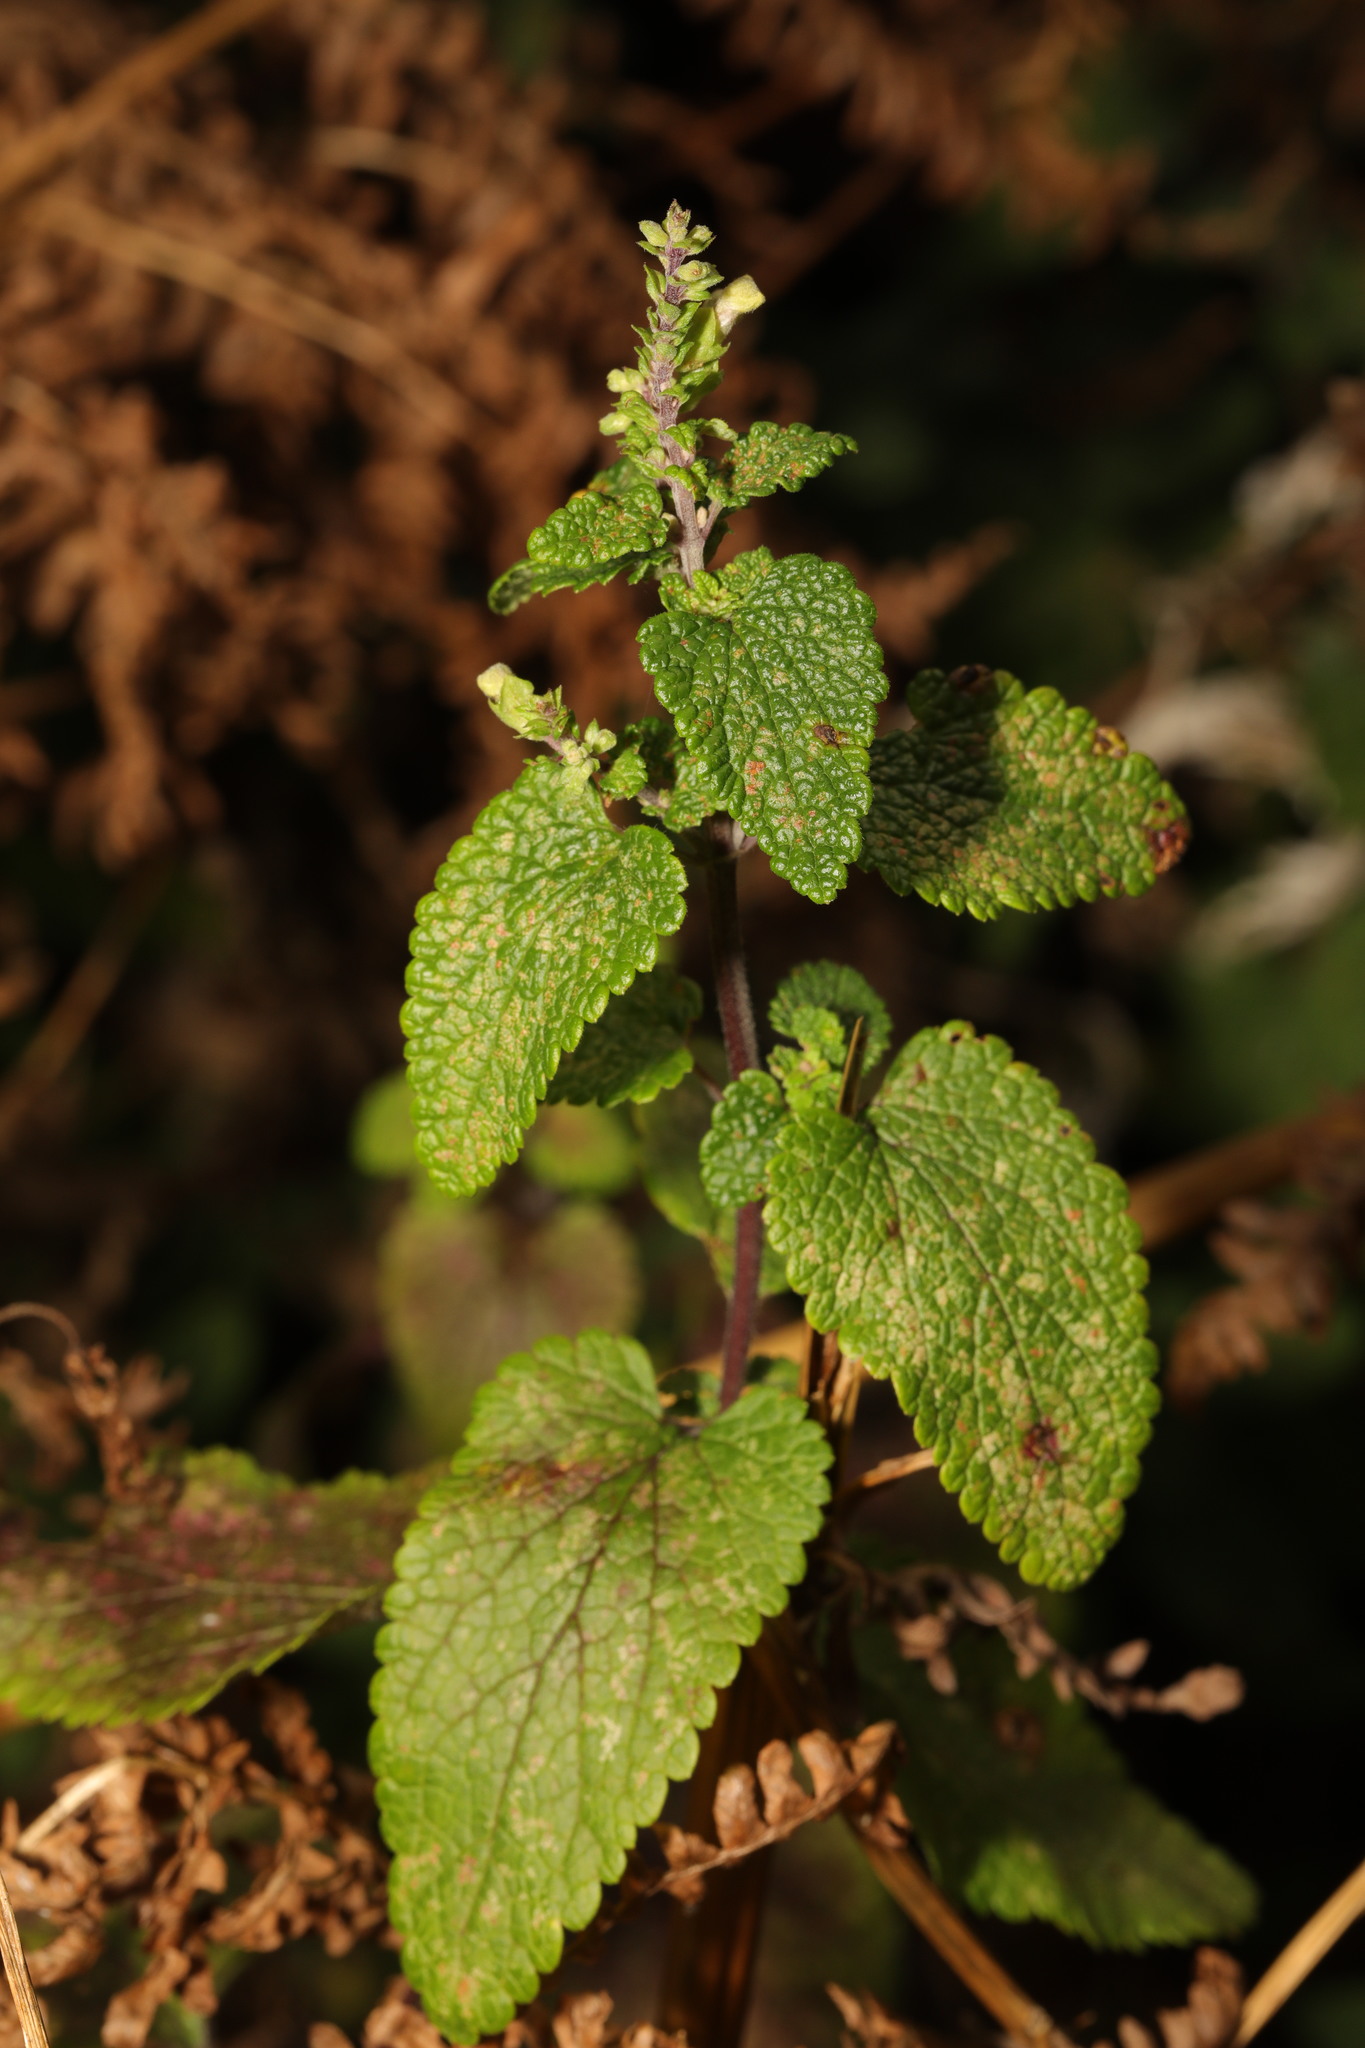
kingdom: Plantae
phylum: Tracheophyta
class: Magnoliopsida
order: Lamiales
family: Lamiaceae
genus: Teucrium
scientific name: Teucrium scorodonia
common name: Woodland germander
